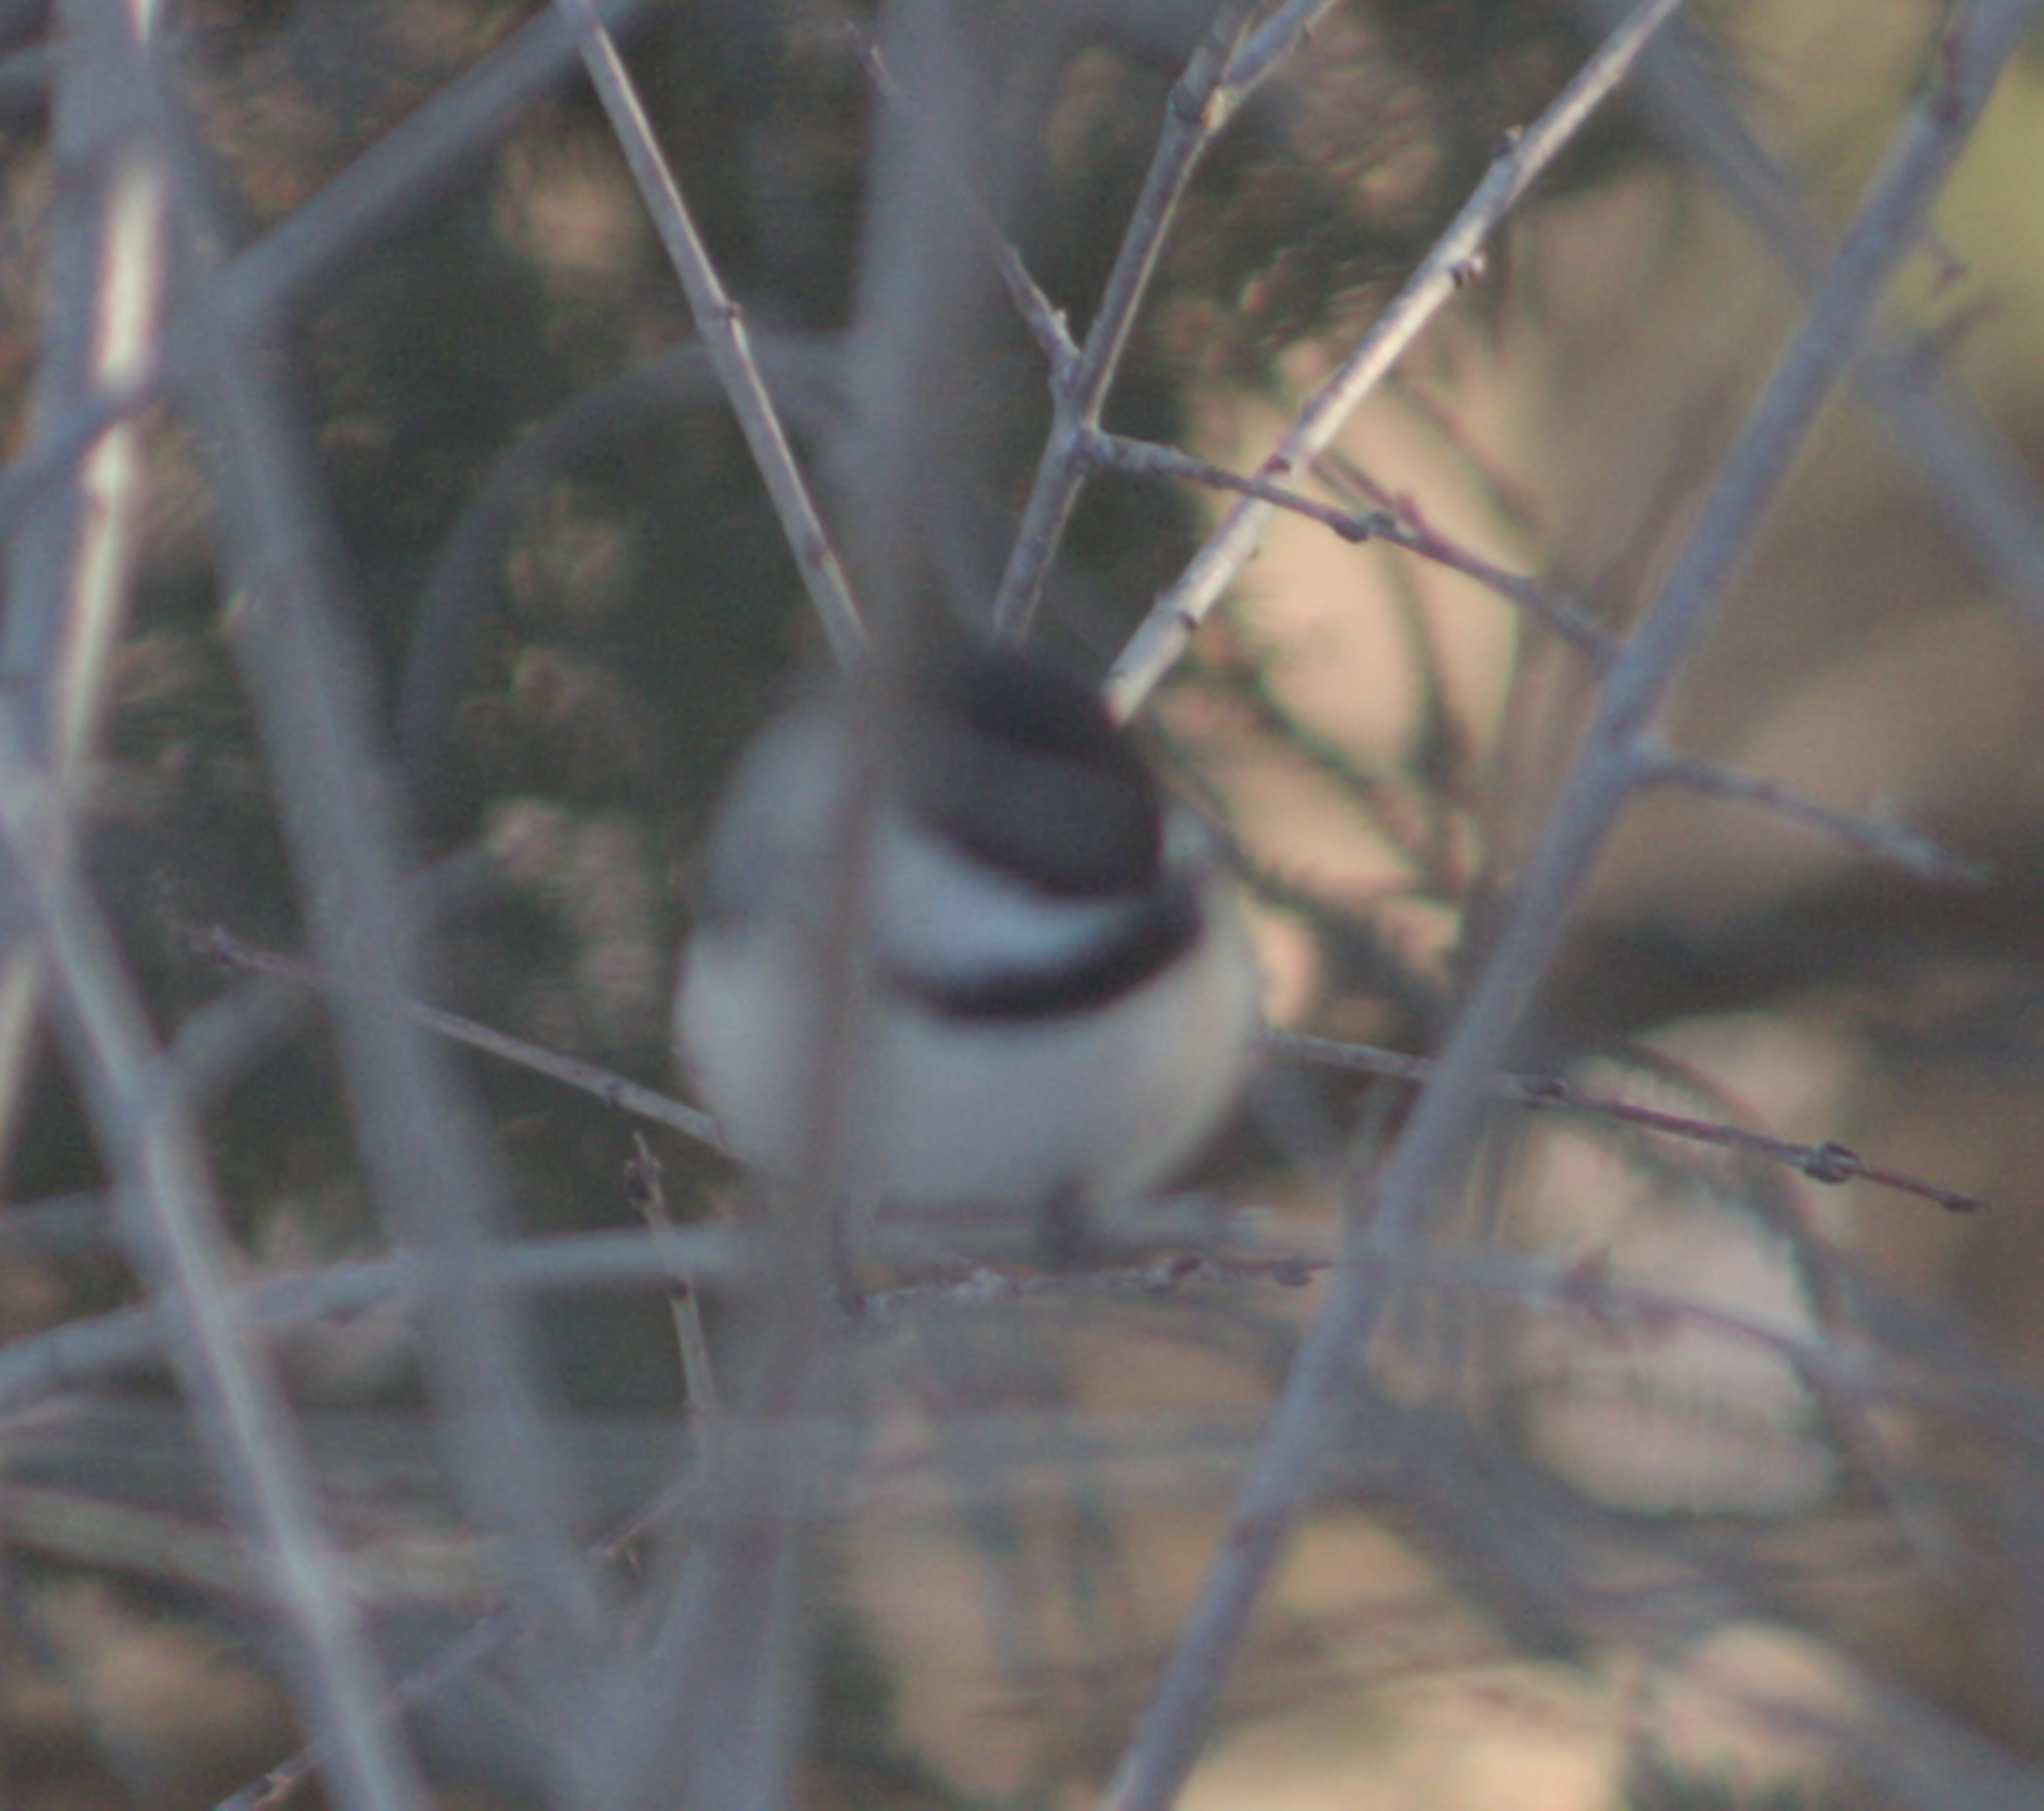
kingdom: Animalia
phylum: Chordata
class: Aves
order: Passeriformes
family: Paridae
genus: Poecile
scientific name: Poecile atricapillus
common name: Black-capped chickadee
